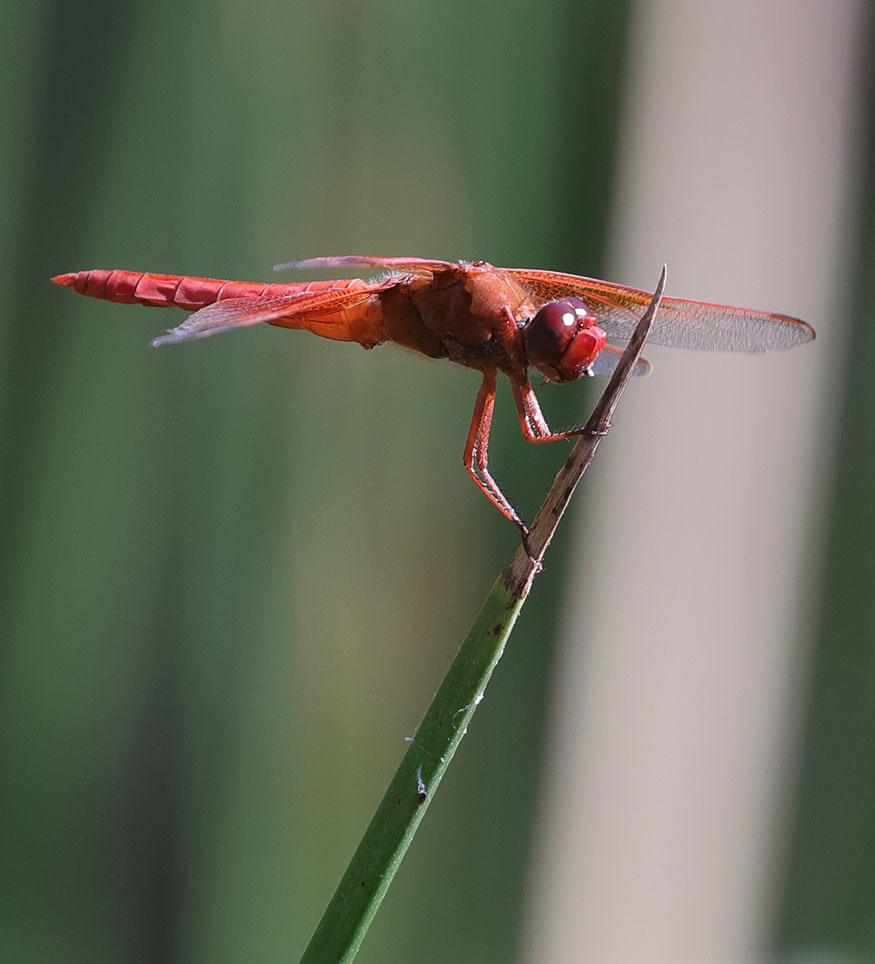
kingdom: Animalia
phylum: Arthropoda
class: Insecta
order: Odonata
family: Libellulidae
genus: Libellula
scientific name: Libellula saturata
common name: Flame skimmer
